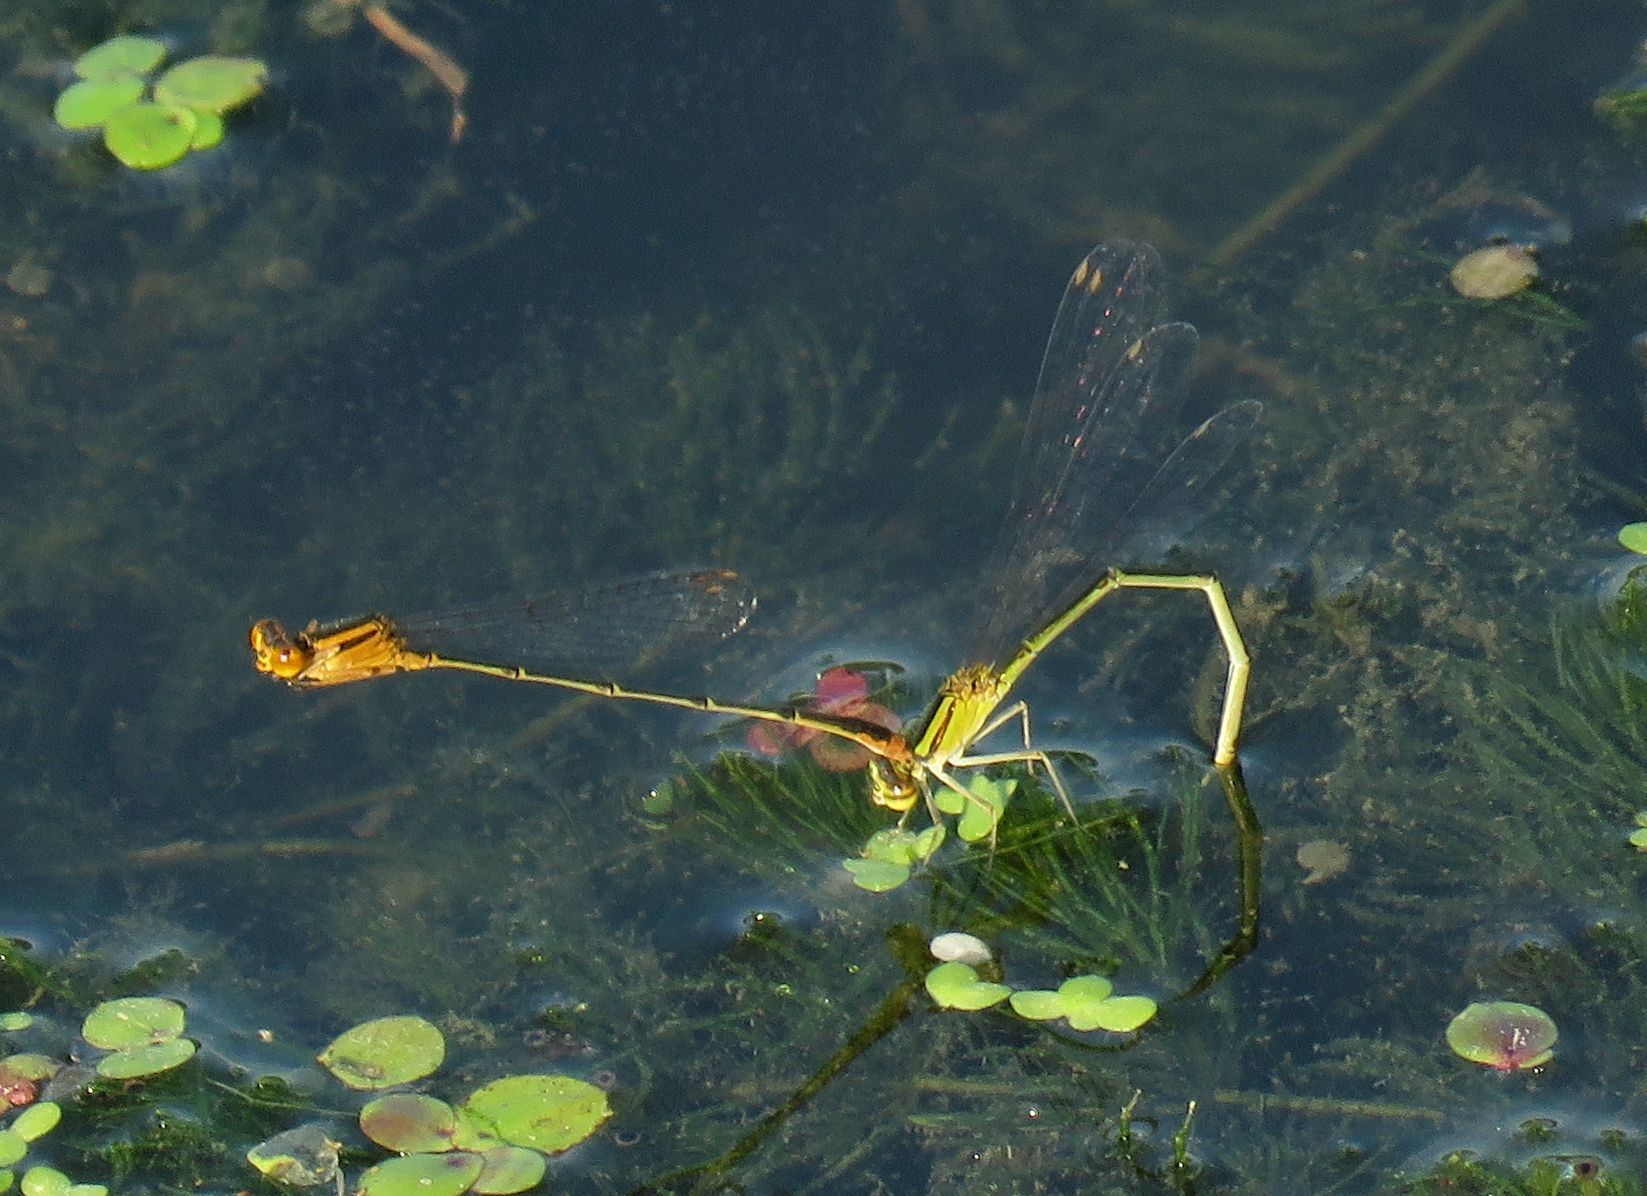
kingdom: Animalia
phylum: Arthropoda
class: Insecta
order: Odonata
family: Coenagrionidae
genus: Enallagma
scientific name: Enallagma signatum
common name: Orange bluet
